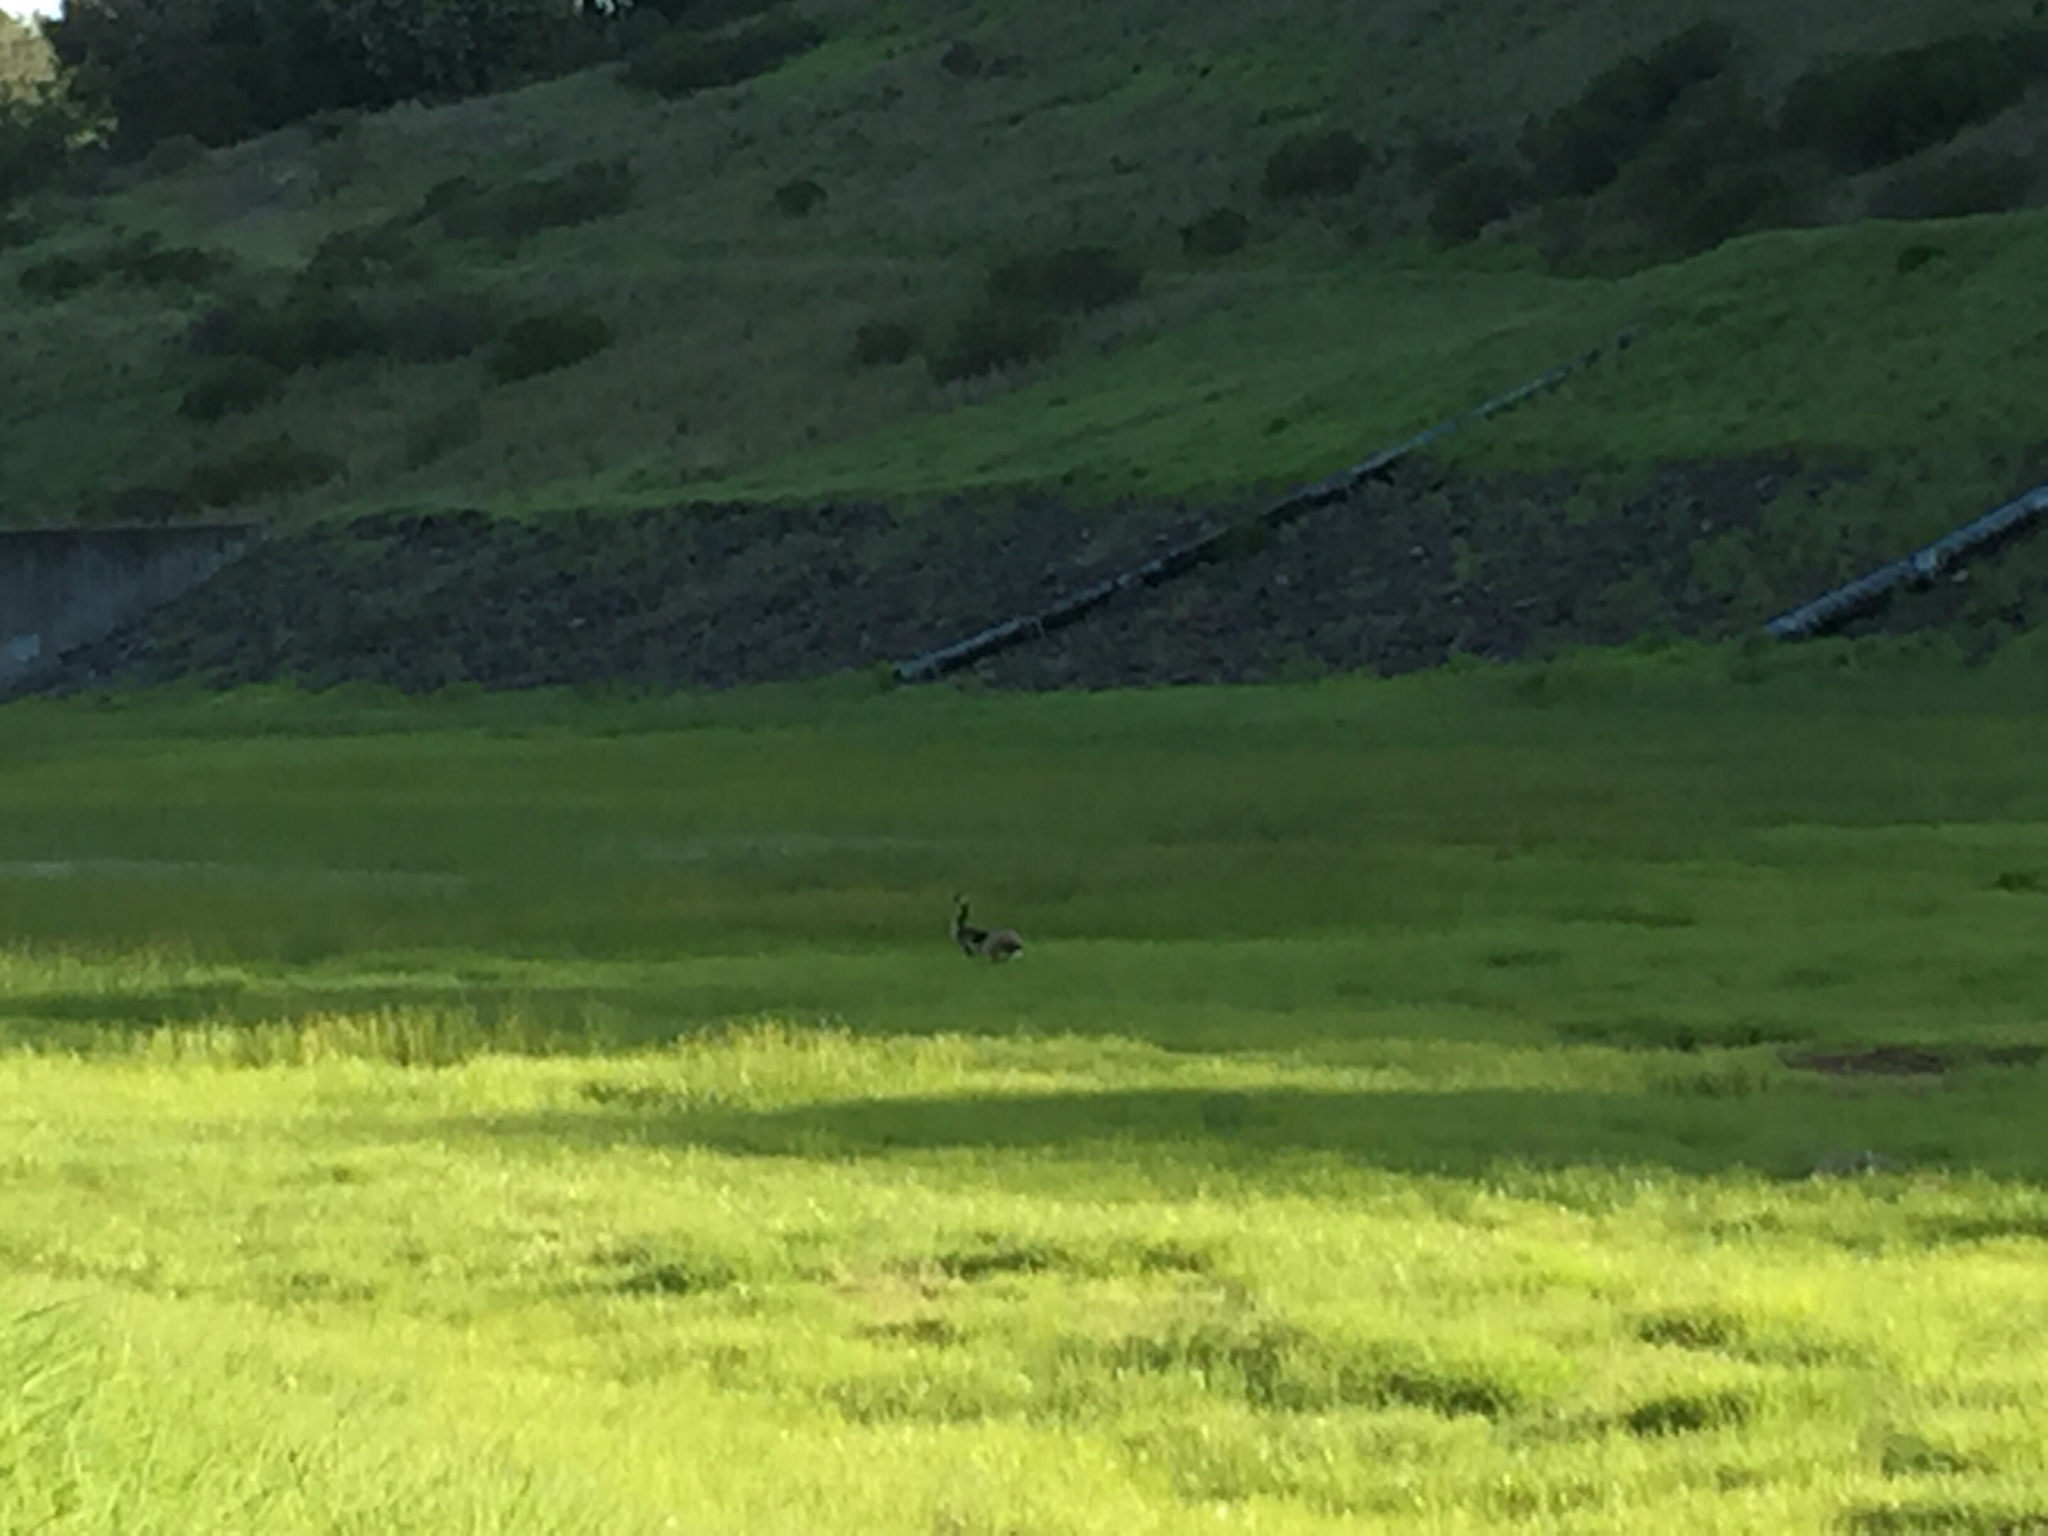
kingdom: Animalia
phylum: Chordata
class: Aves
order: Anseriformes
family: Anatidae
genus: Branta
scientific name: Branta canadensis
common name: Canada goose
